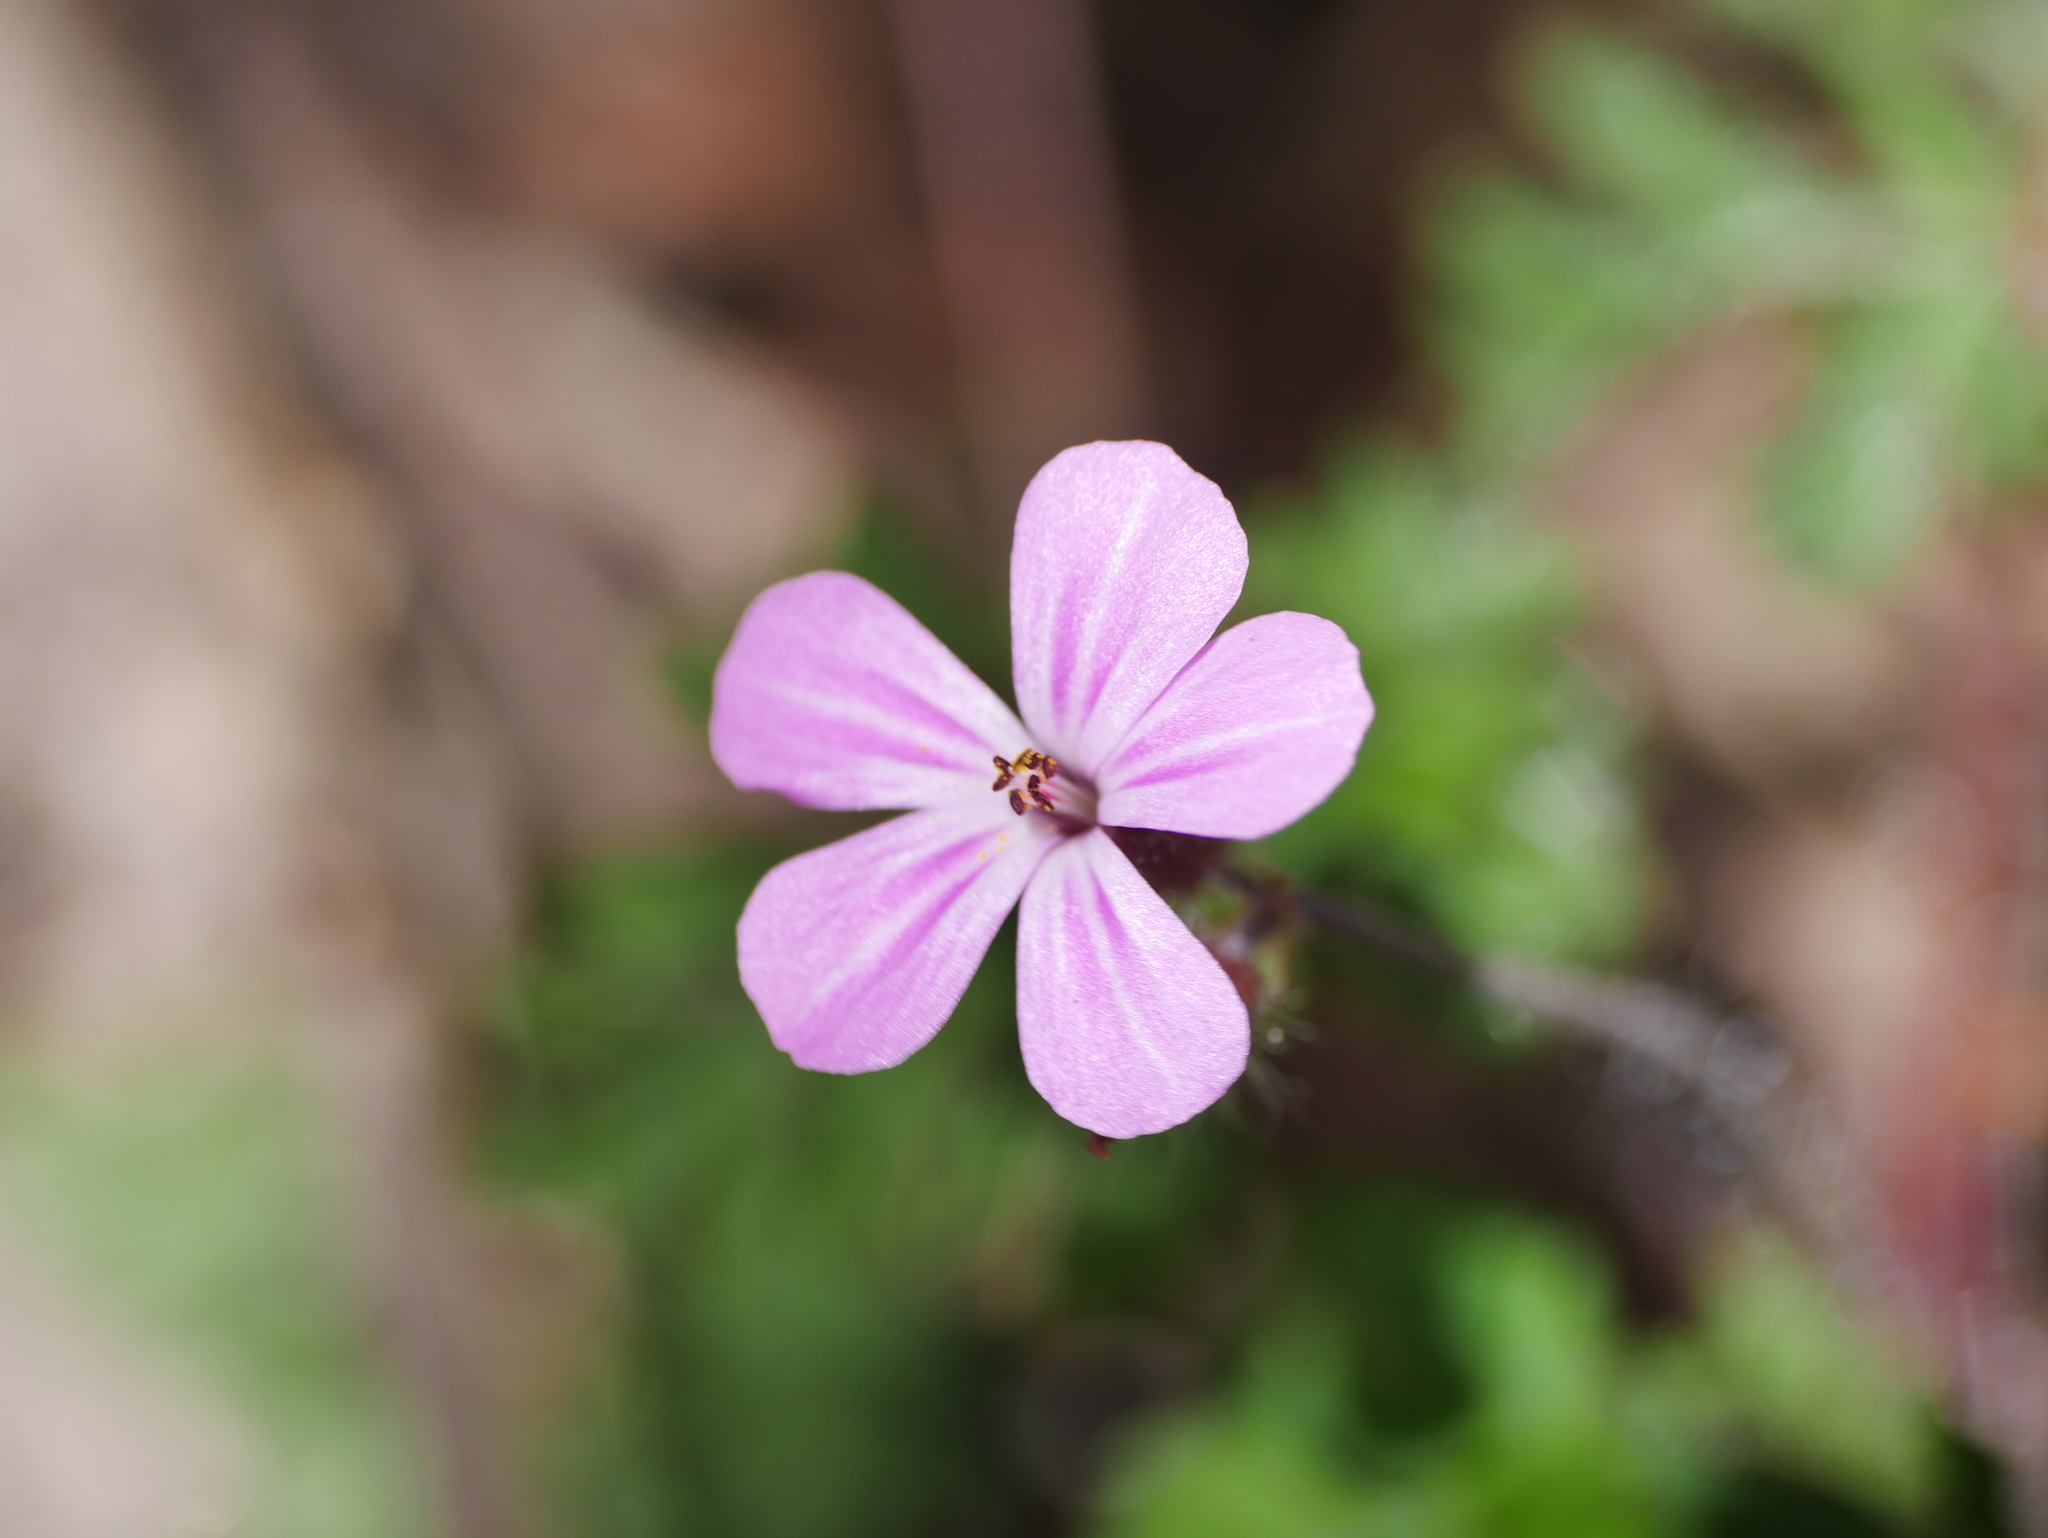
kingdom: Plantae
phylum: Tracheophyta
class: Magnoliopsida
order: Geraniales
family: Geraniaceae
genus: Geranium
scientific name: Geranium robertianum
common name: Herb-robert
